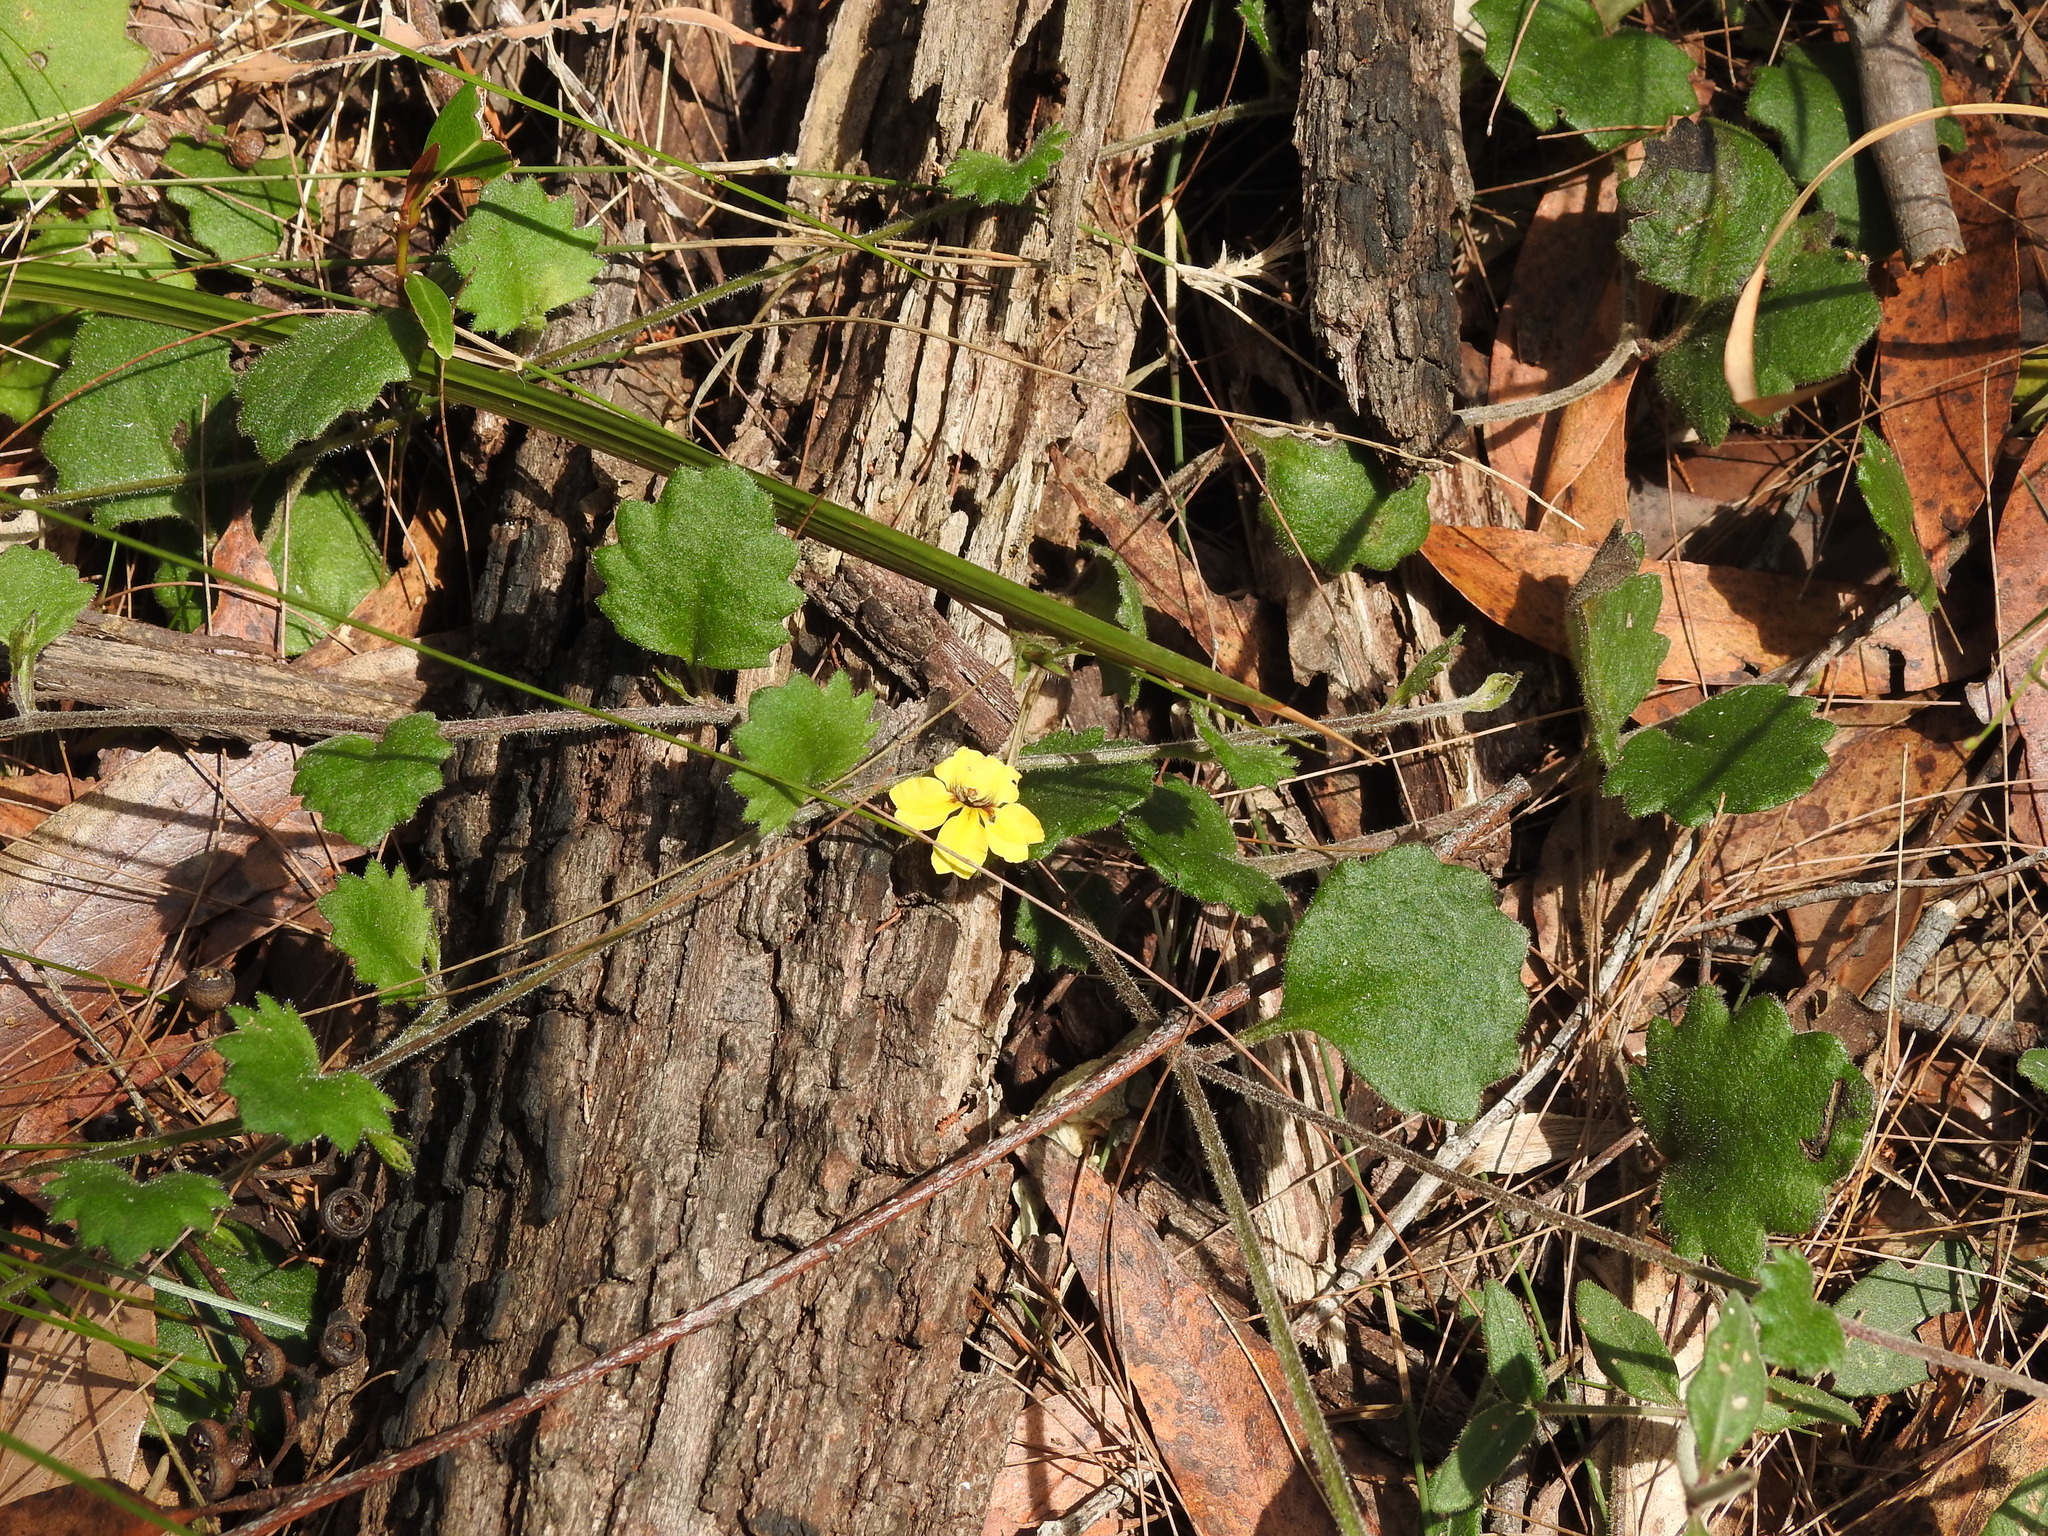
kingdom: Plantae
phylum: Tracheophyta
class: Magnoliopsida
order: Asterales
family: Goodeniaceae
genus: Goodenia
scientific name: Goodenia rotundifolia
